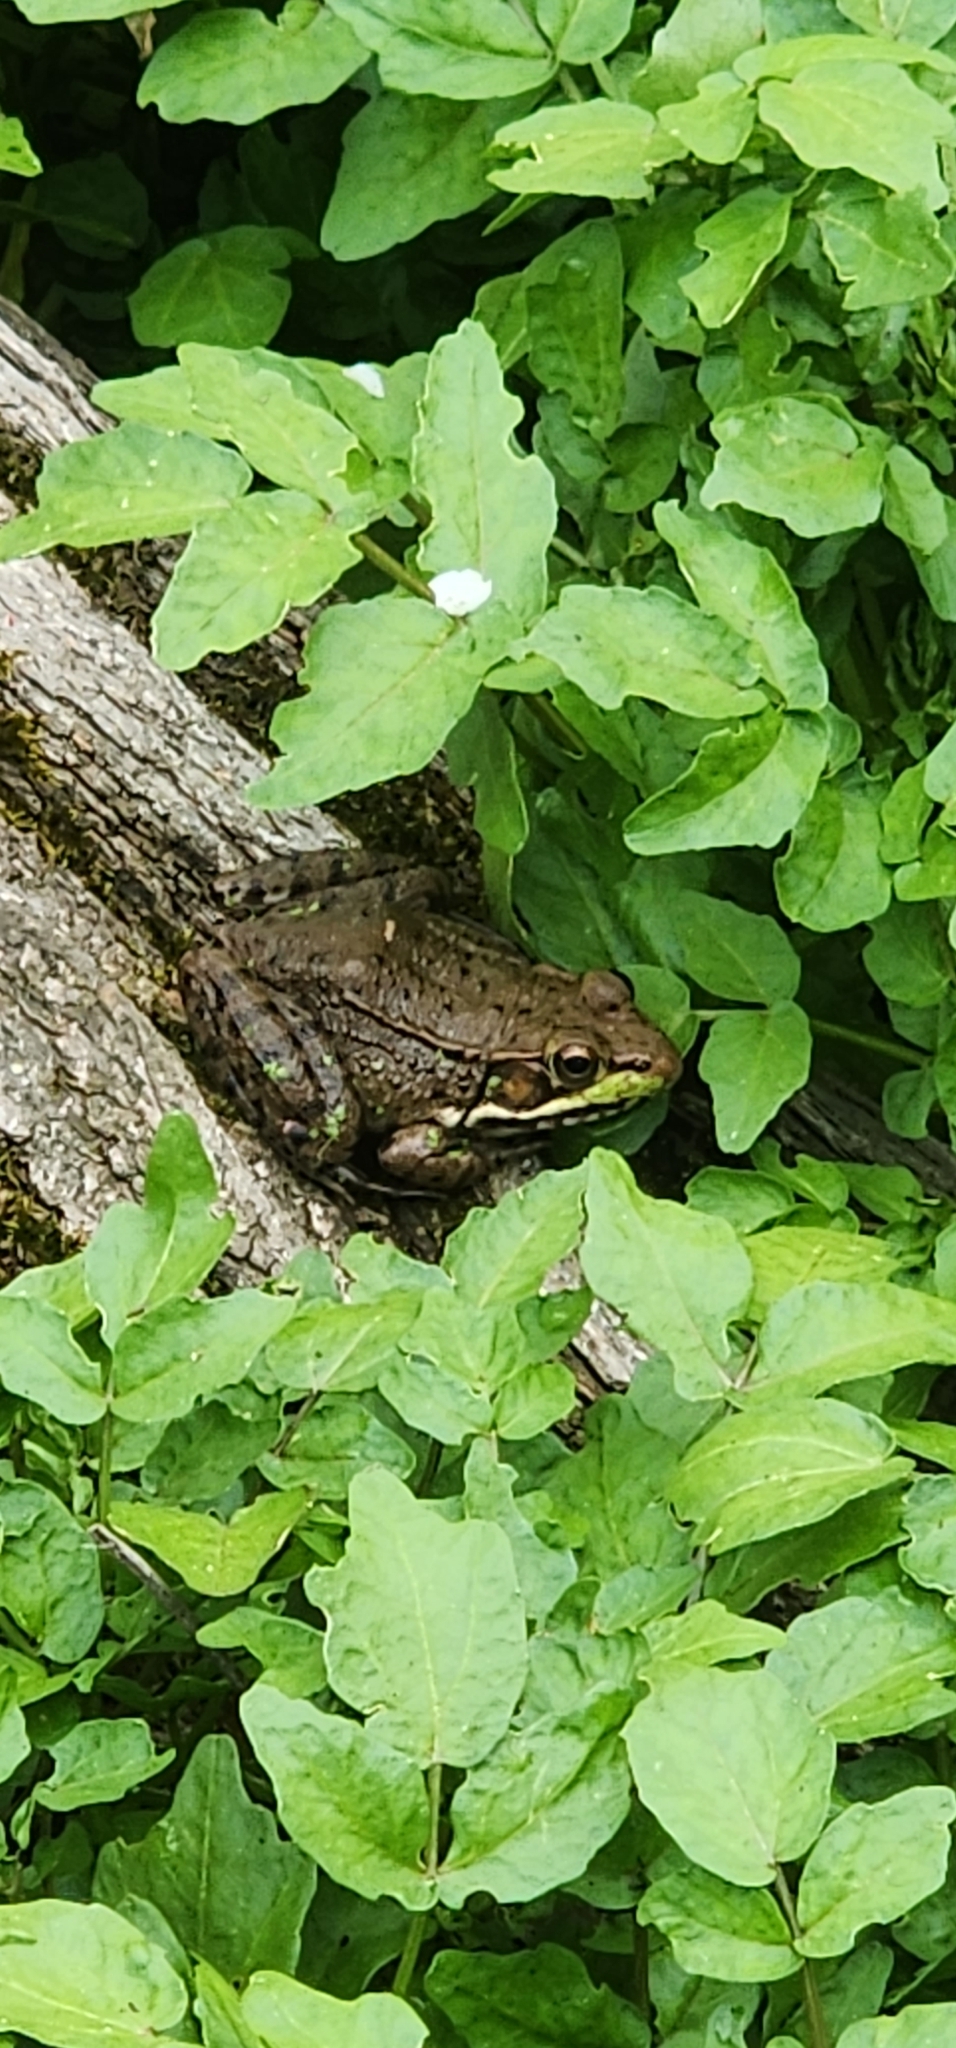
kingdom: Animalia
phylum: Chordata
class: Amphibia
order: Anura
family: Ranidae
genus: Lithobates
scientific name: Lithobates clamitans
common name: Green frog
